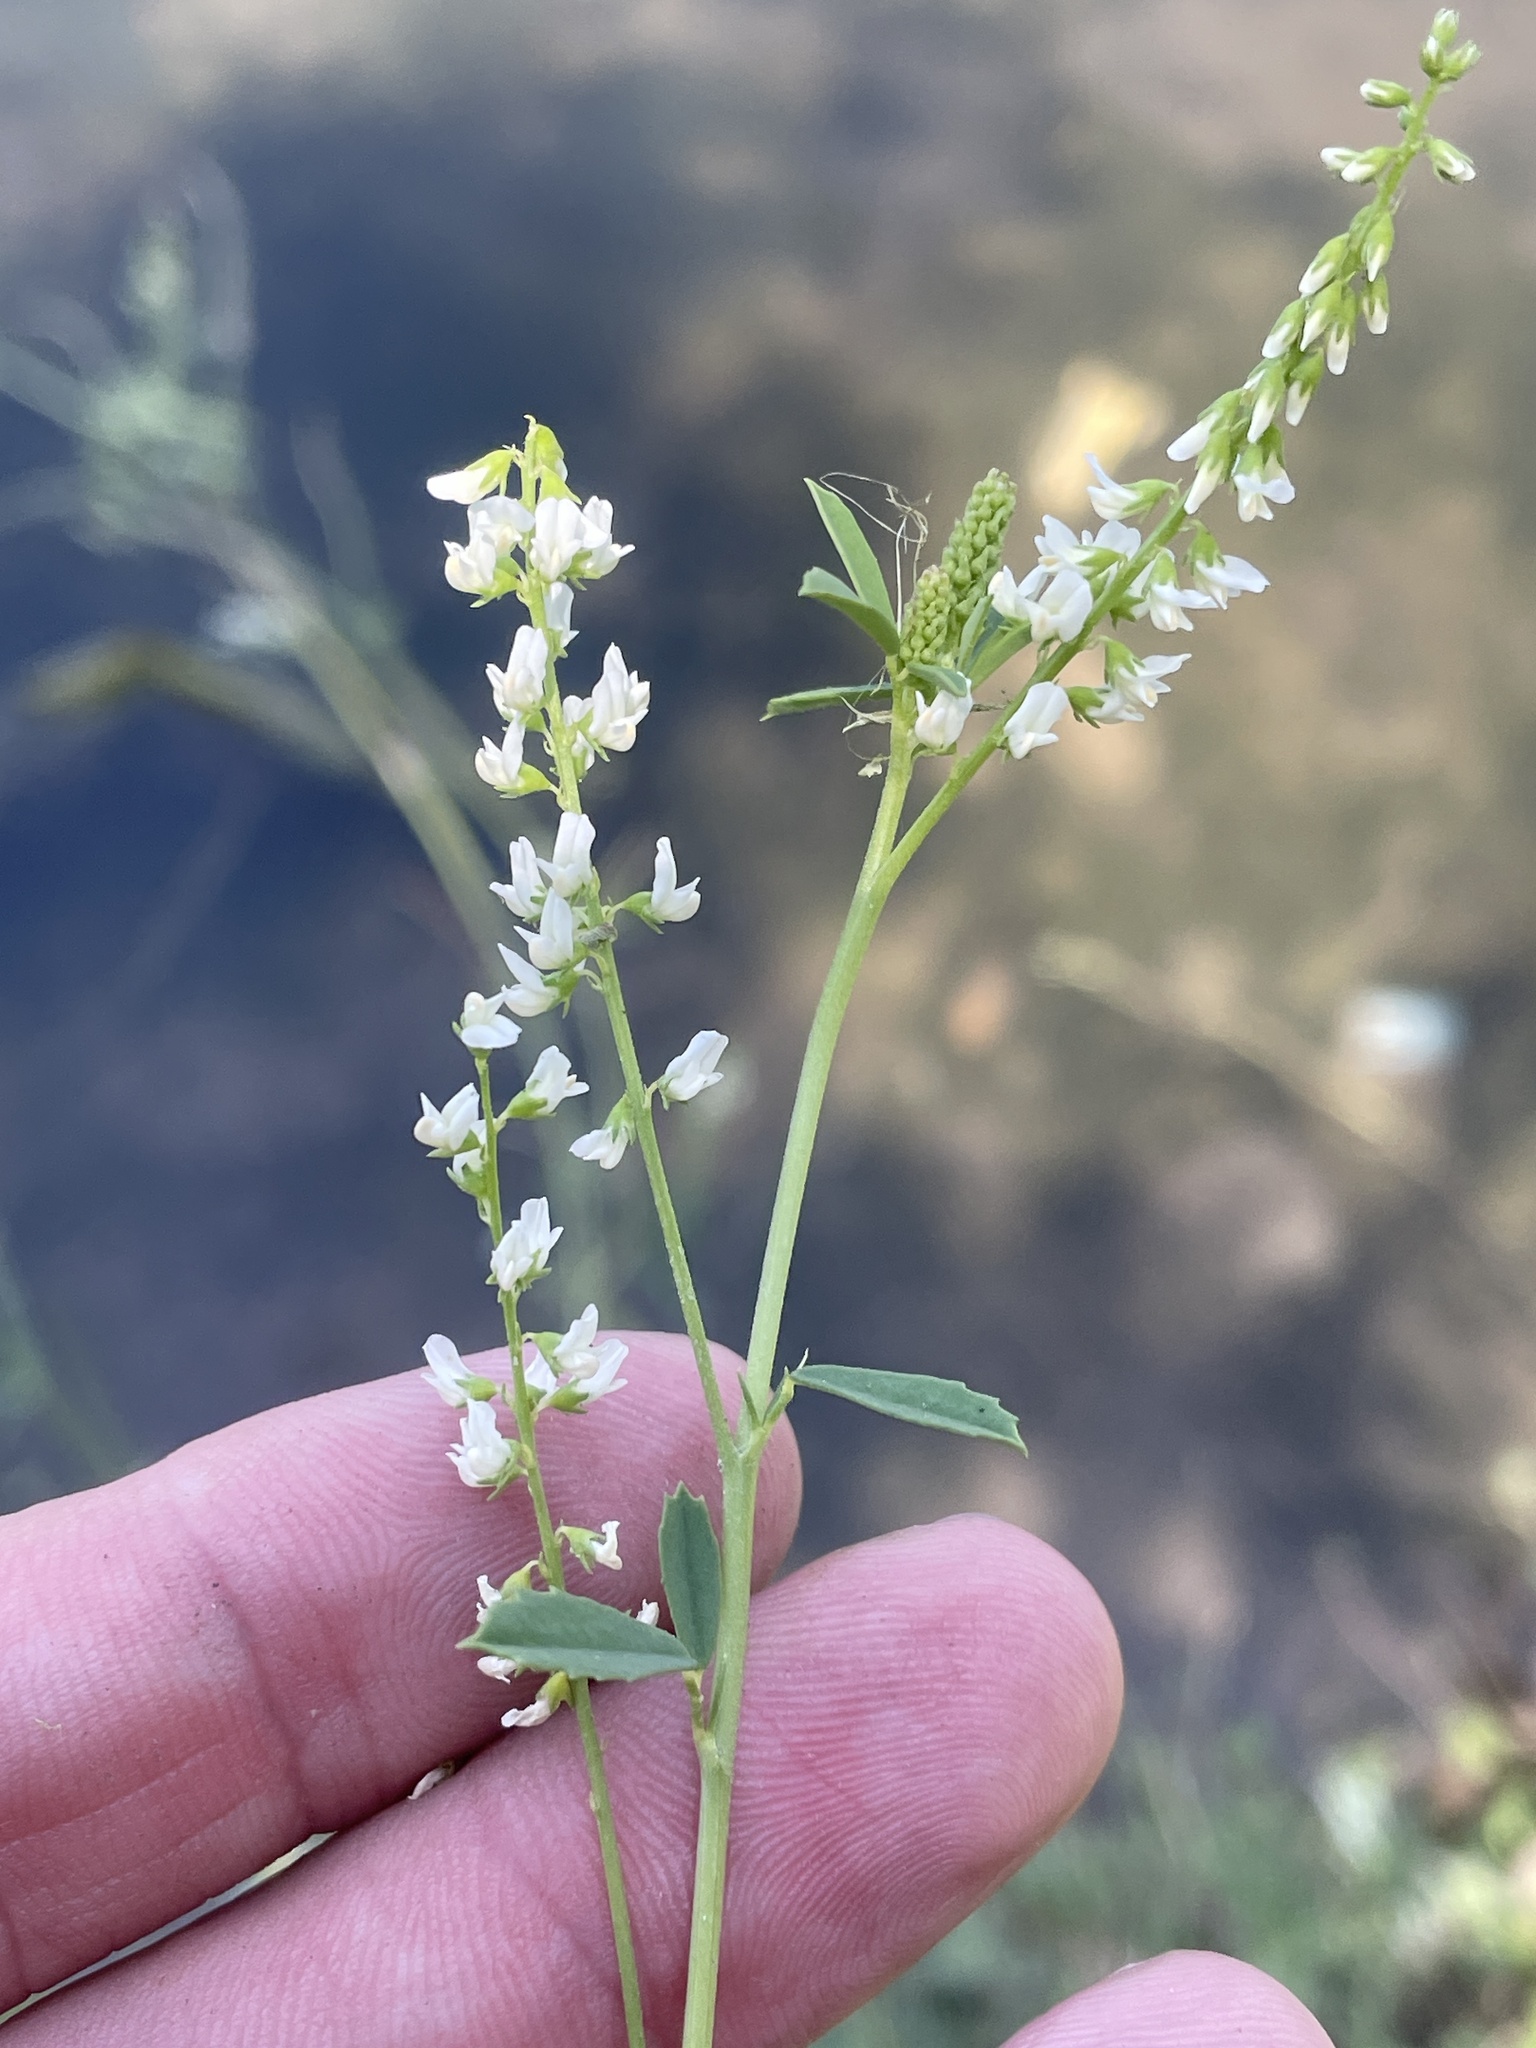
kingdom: Plantae
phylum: Tracheophyta
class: Magnoliopsida
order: Fabales
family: Fabaceae
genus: Melilotus
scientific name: Melilotus albus
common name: White melilot
